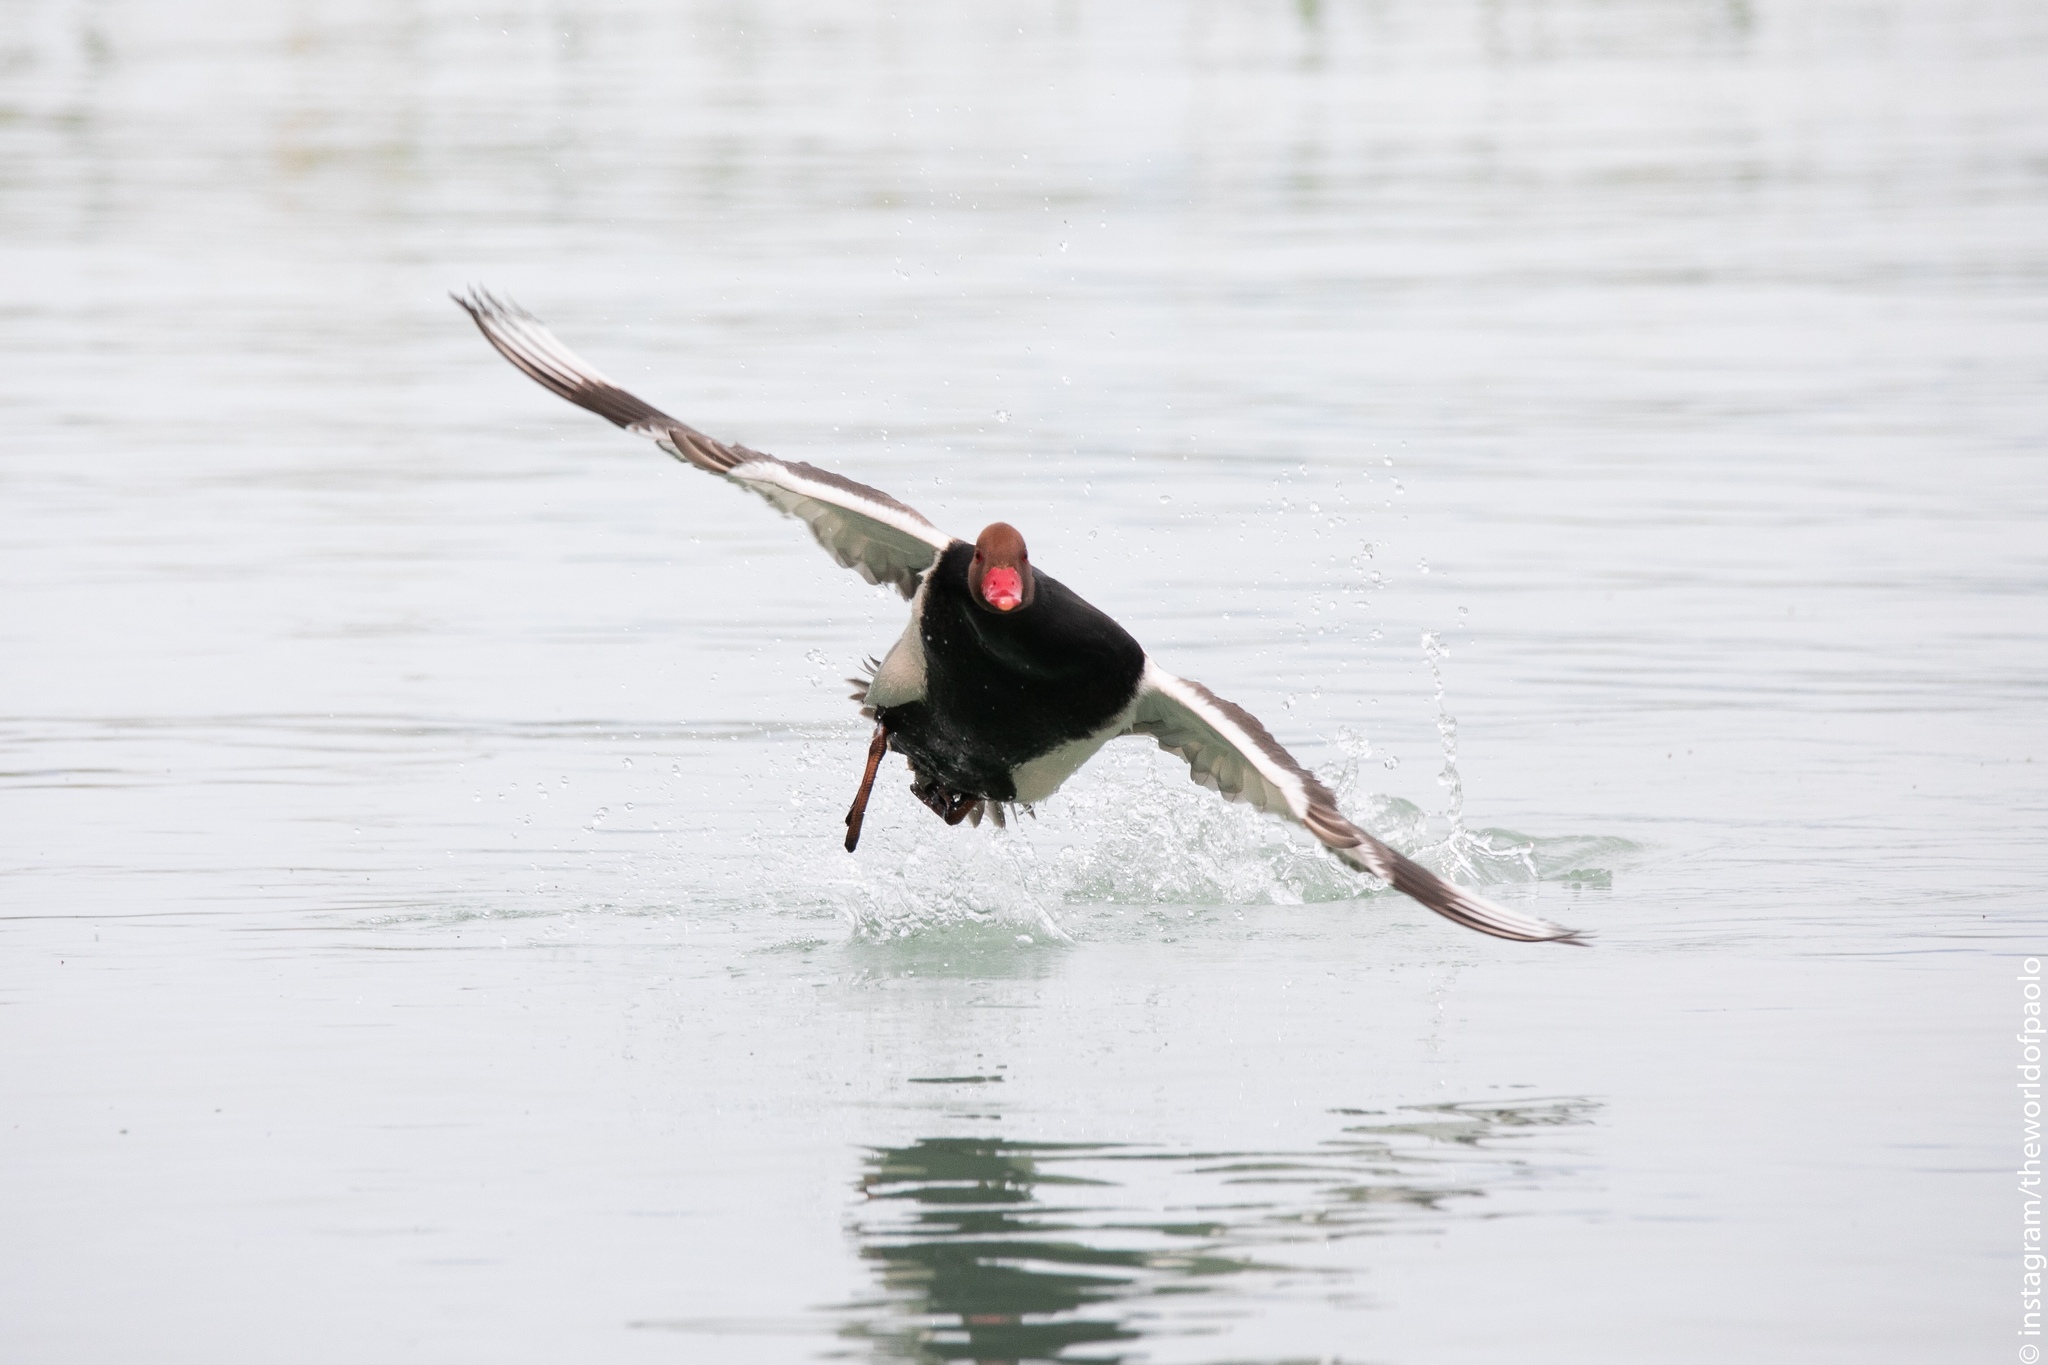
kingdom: Animalia
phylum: Chordata
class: Aves
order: Anseriformes
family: Anatidae
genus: Netta
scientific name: Netta rufina
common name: Red-crested pochard
